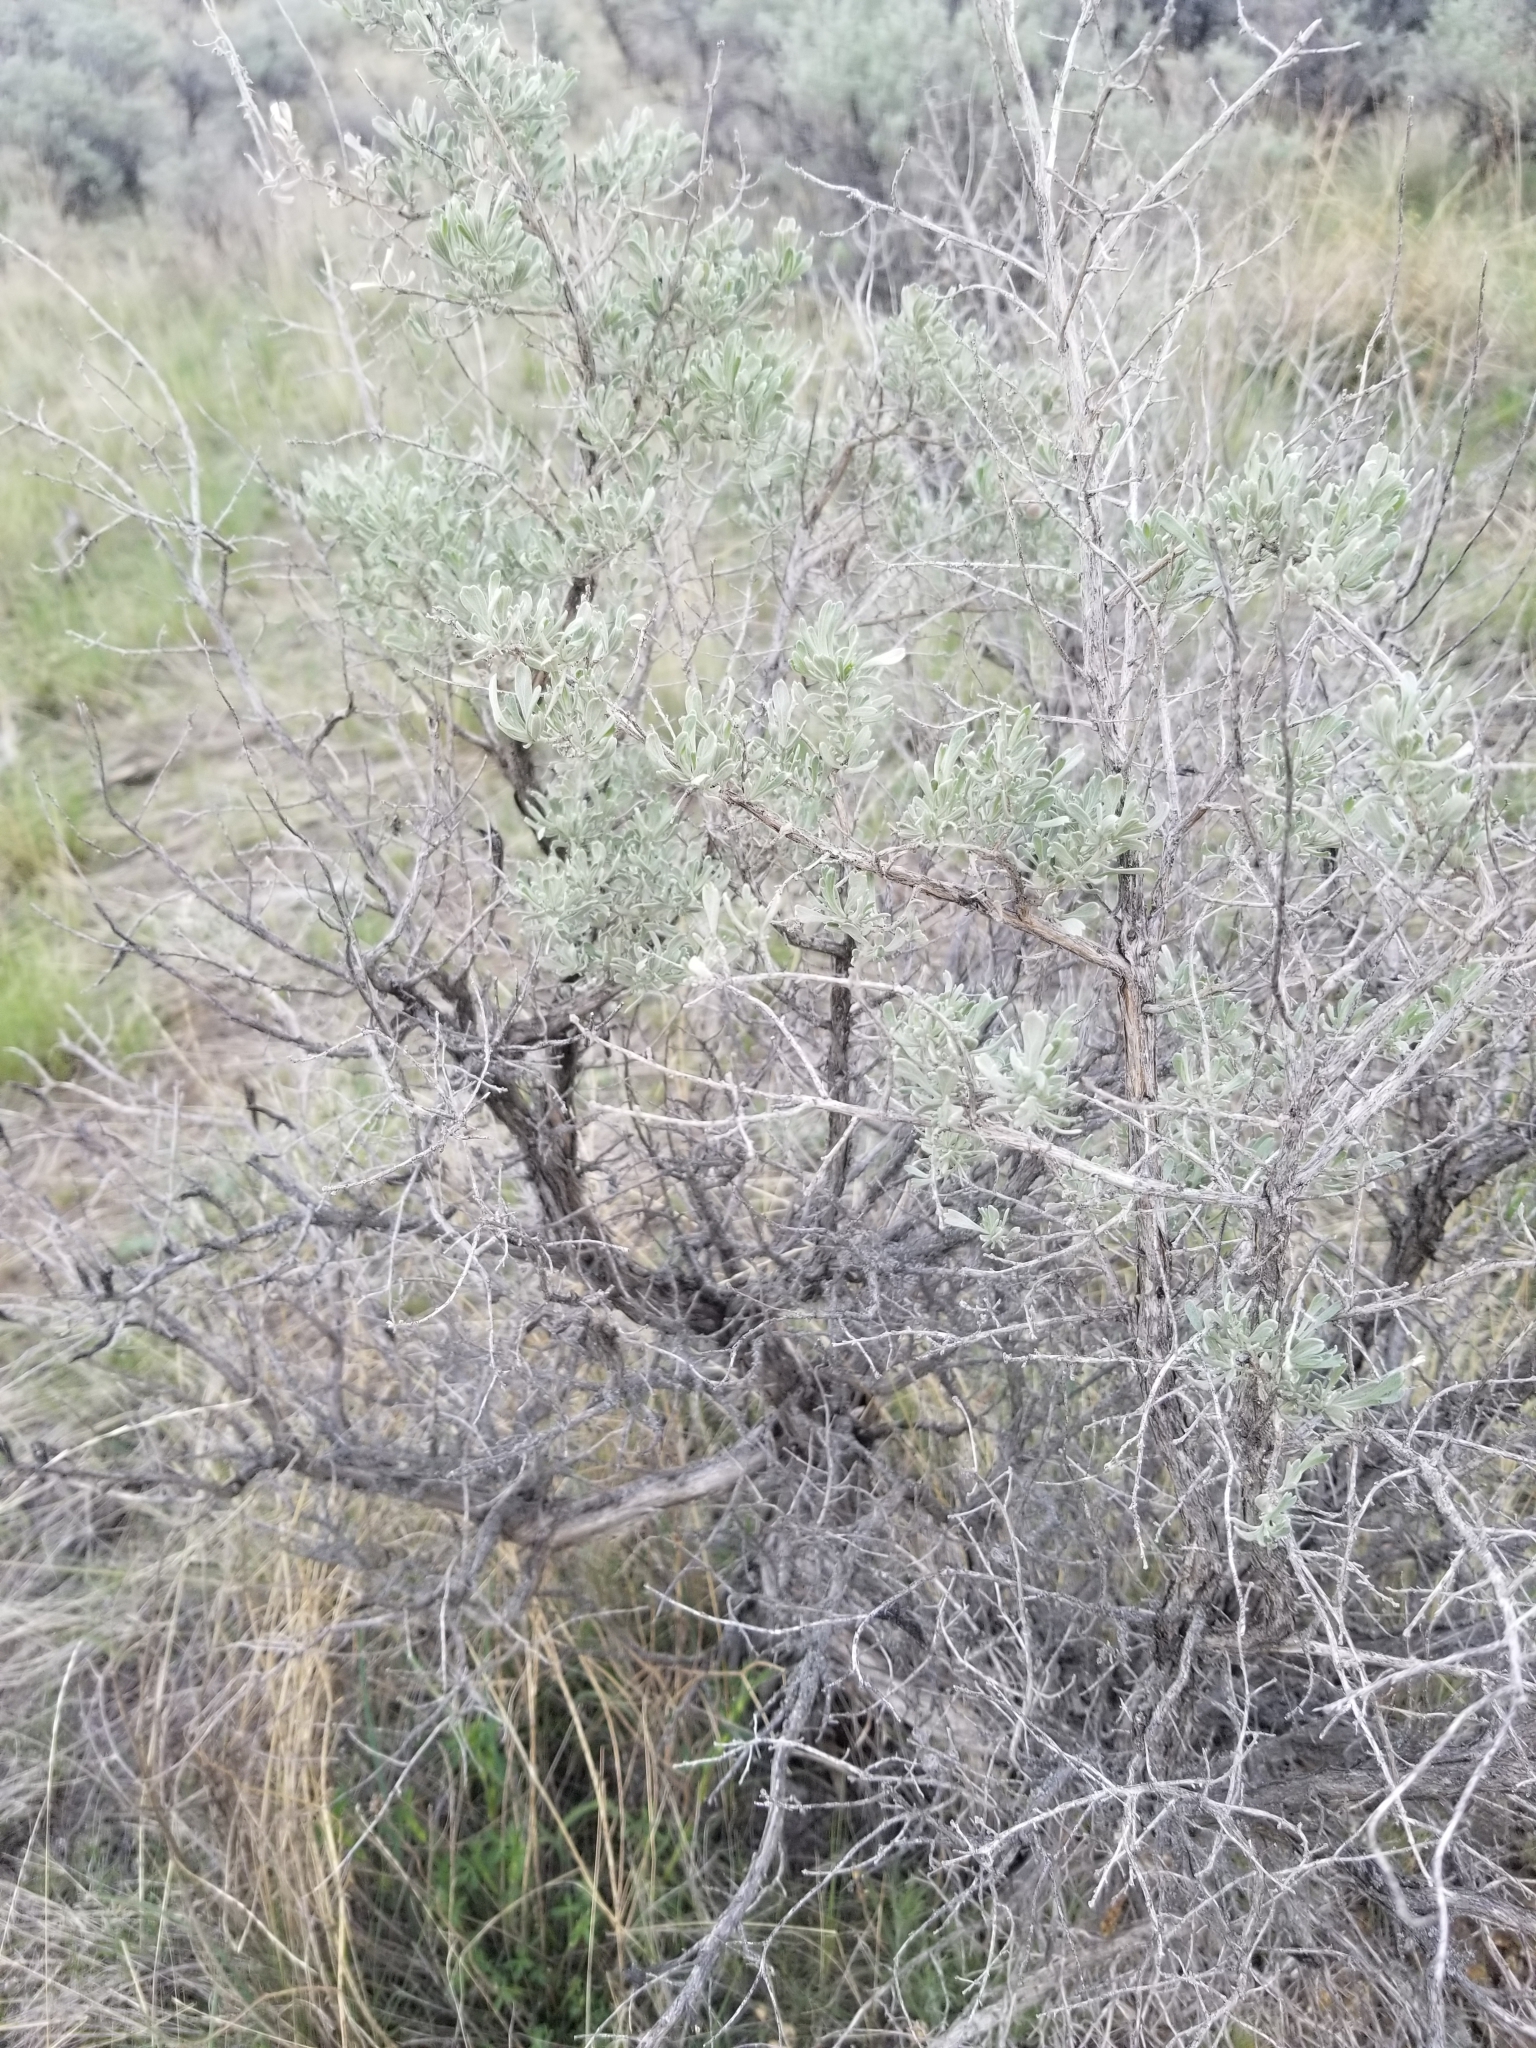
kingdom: Plantae
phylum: Tracheophyta
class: Magnoliopsida
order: Asterales
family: Asteraceae
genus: Artemisia
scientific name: Artemisia tridentata
